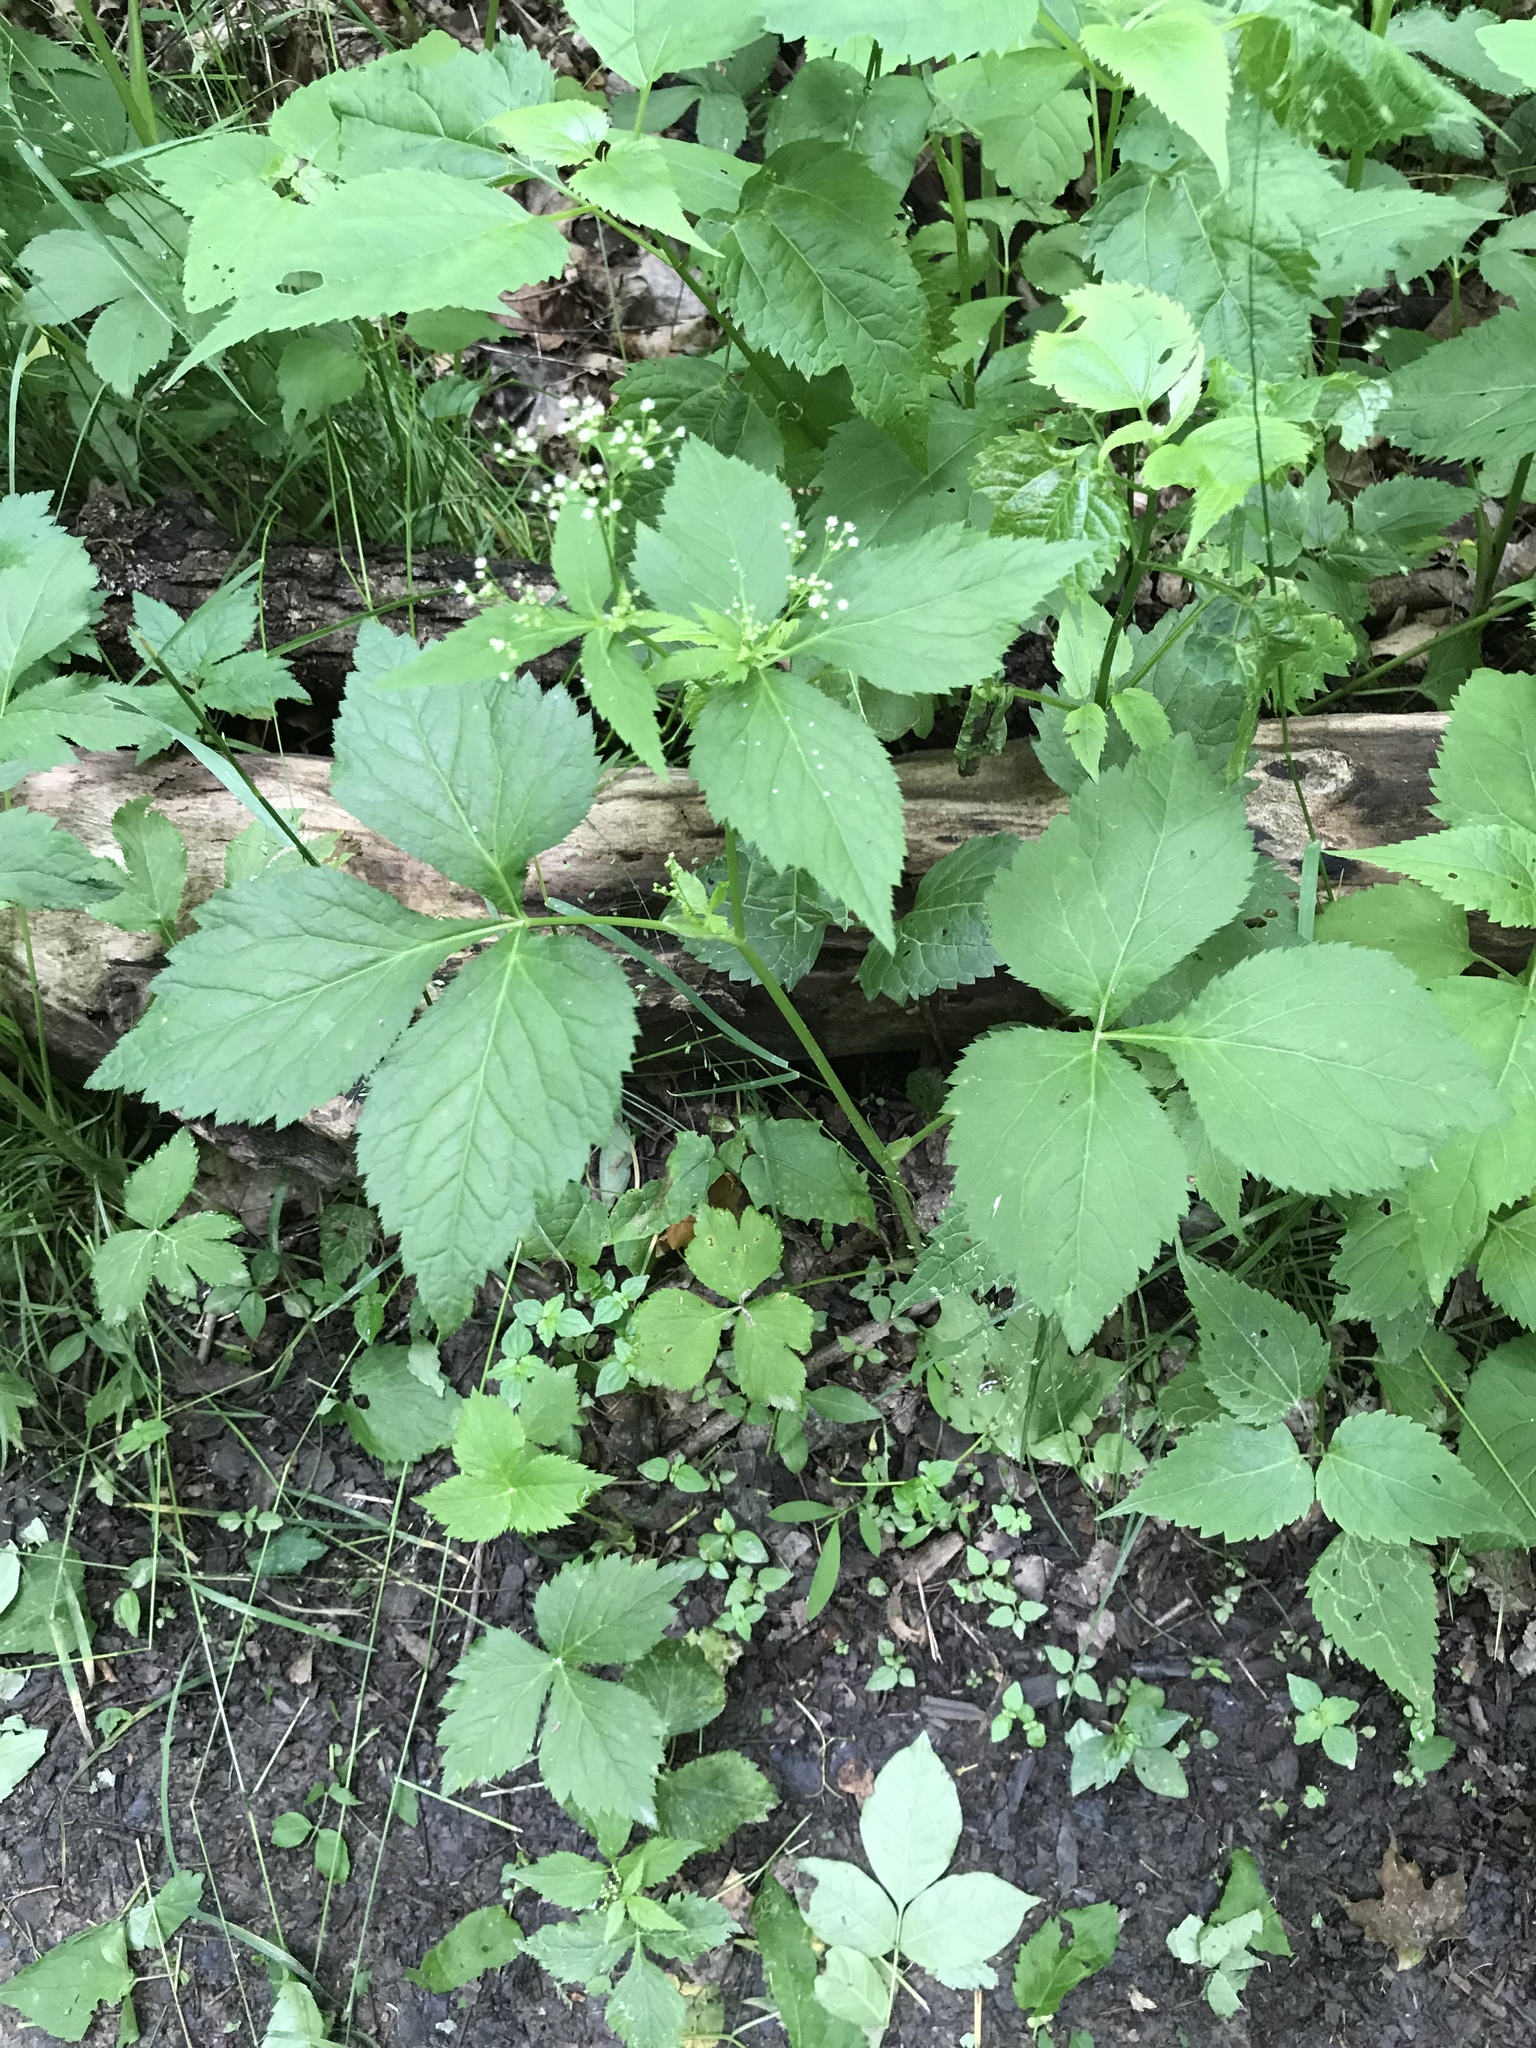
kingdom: Plantae
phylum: Tracheophyta
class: Magnoliopsida
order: Apiales
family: Apiaceae
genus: Cryptotaenia
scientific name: Cryptotaenia canadensis
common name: Honewort
